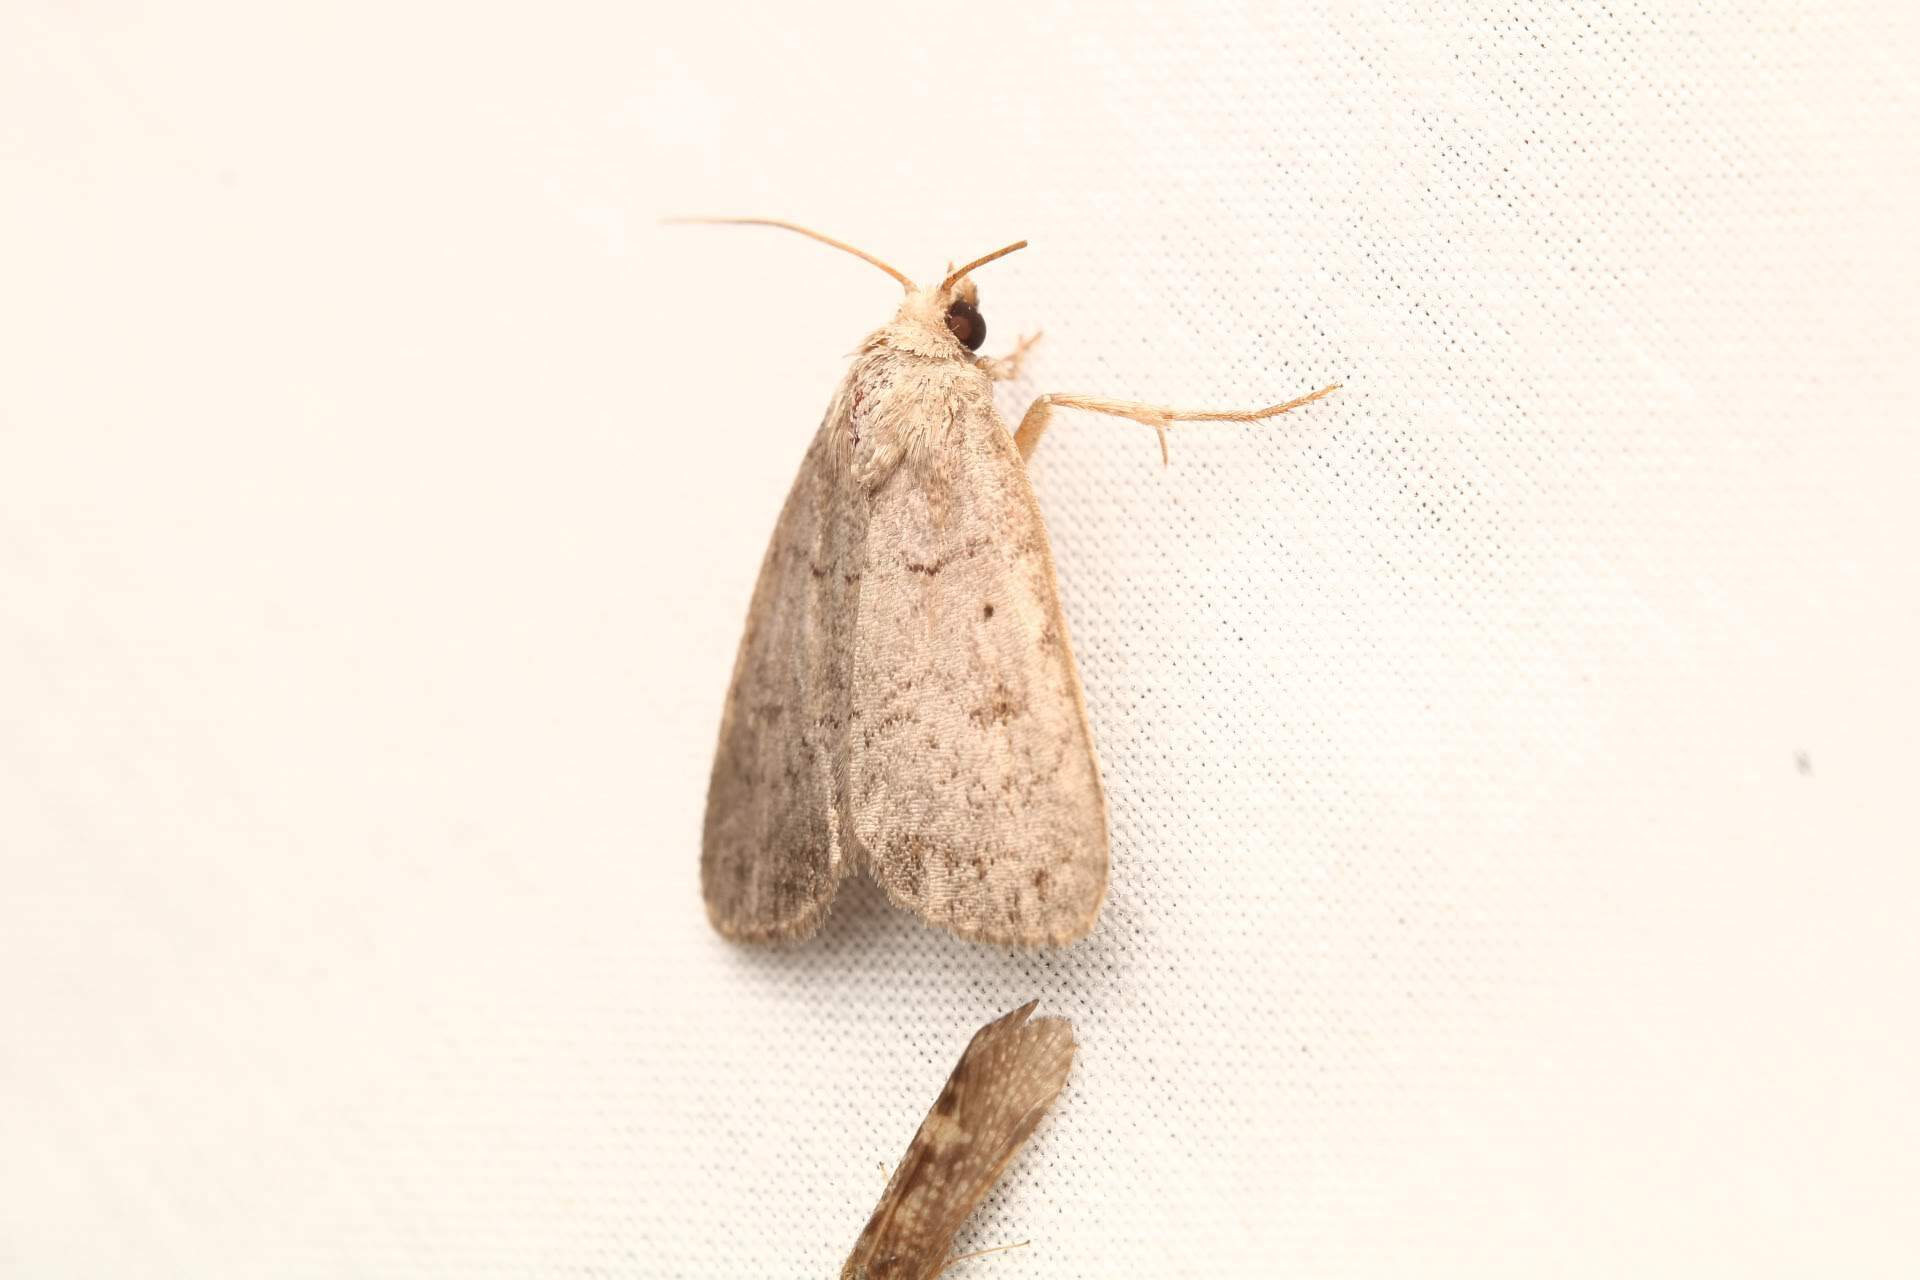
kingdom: Animalia
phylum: Arthropoda
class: Insecta
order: Lepidoptera
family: Noctuidae
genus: Athetis
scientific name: Athetis tarda
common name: Slowpoke moth
